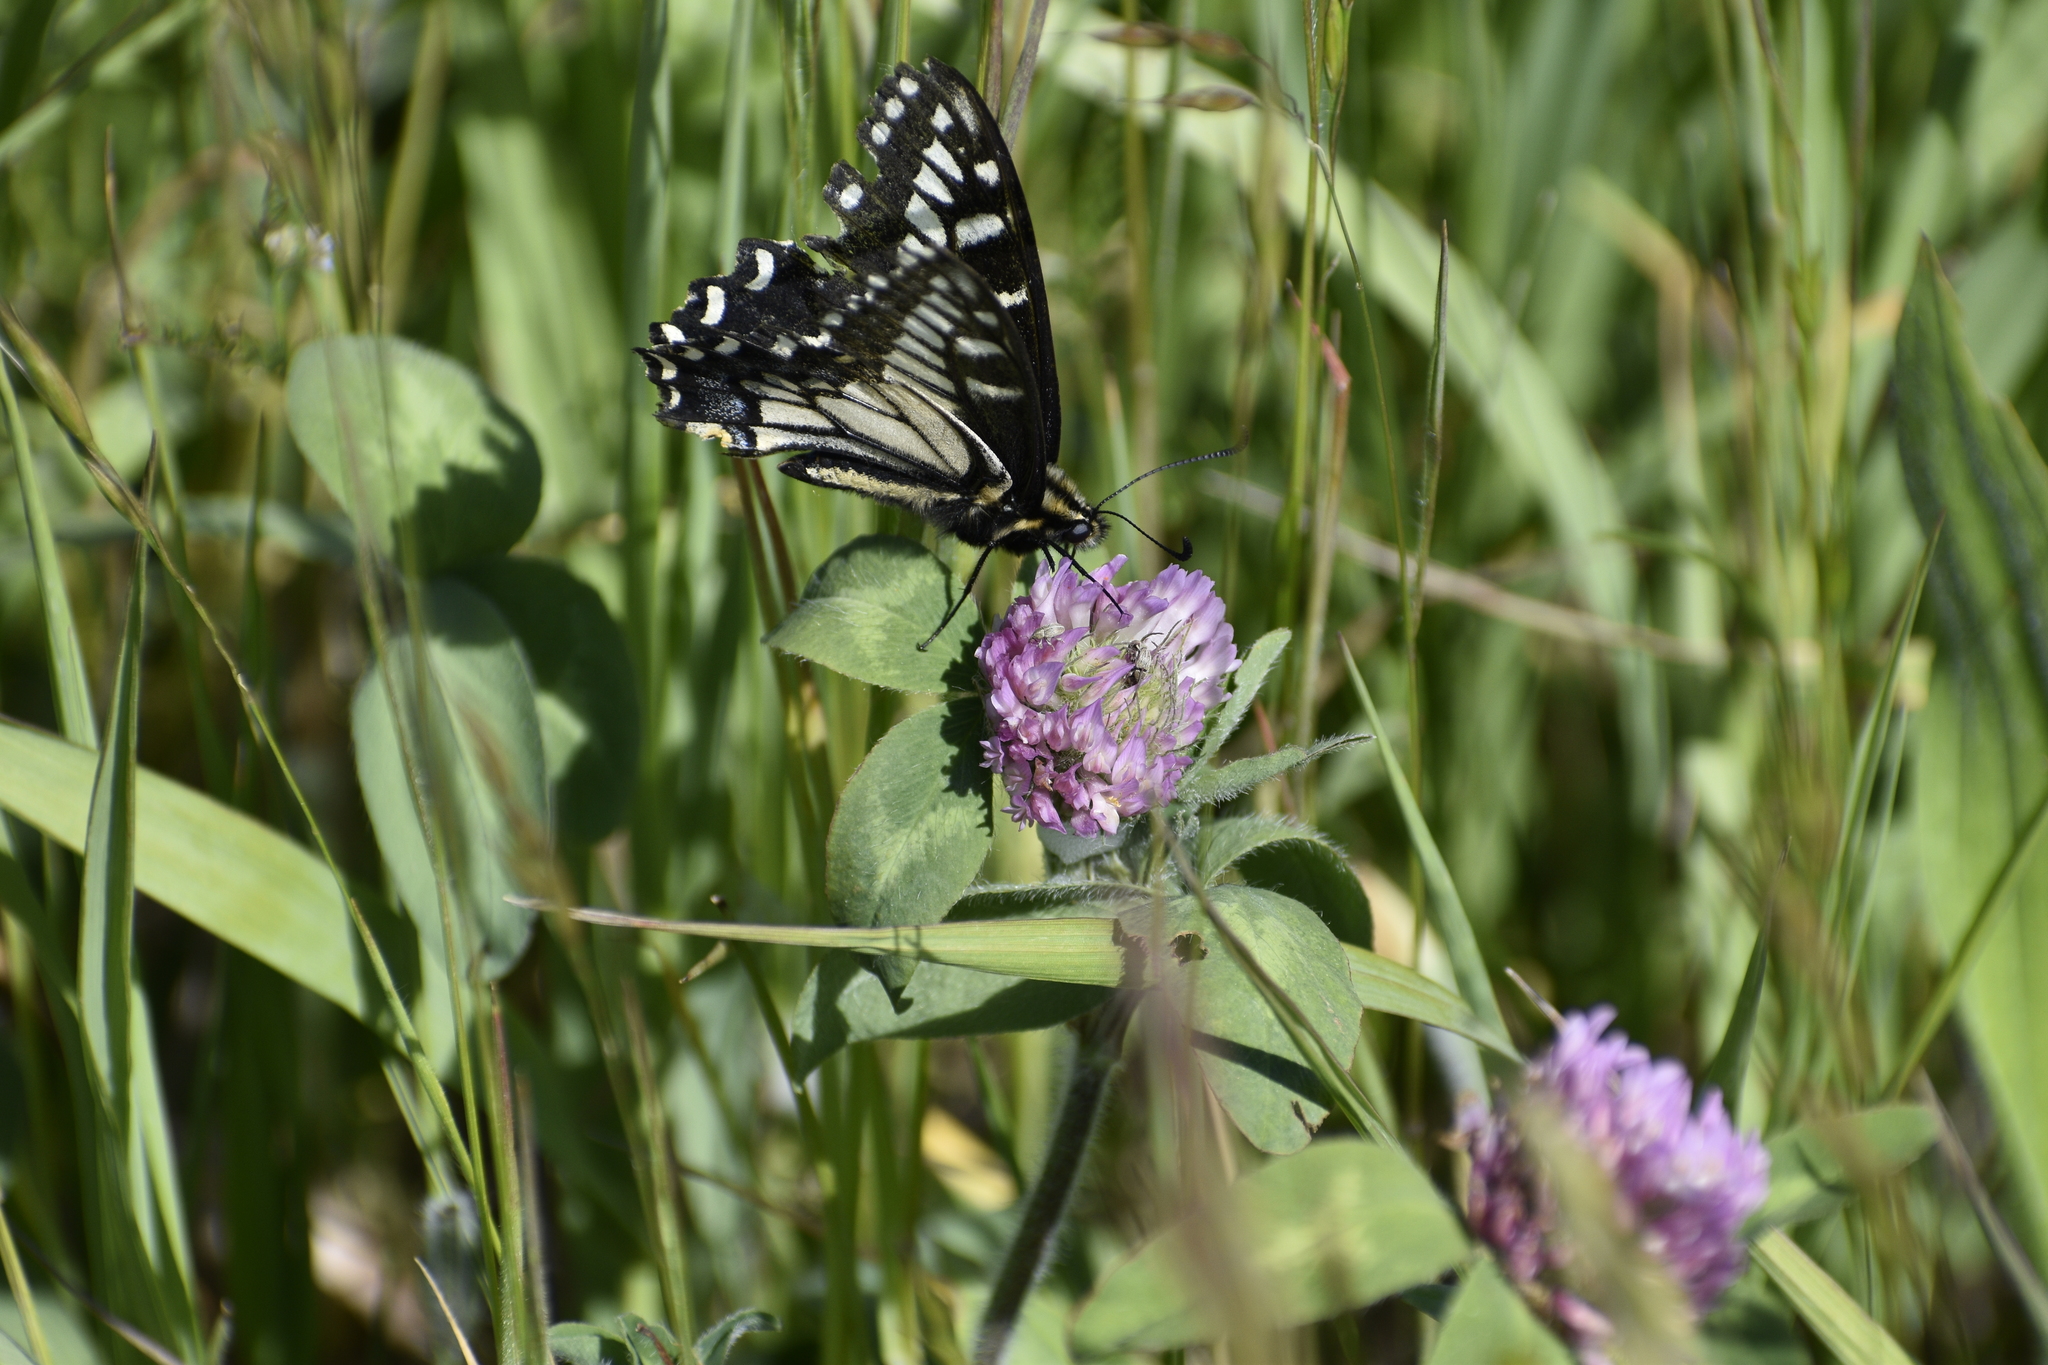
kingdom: Animalia
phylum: Arthropoda
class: Insecta
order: Lepidoptera
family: Papilionidae
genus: Papilio
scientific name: Papilio zelicaon
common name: Anise swallowtail
